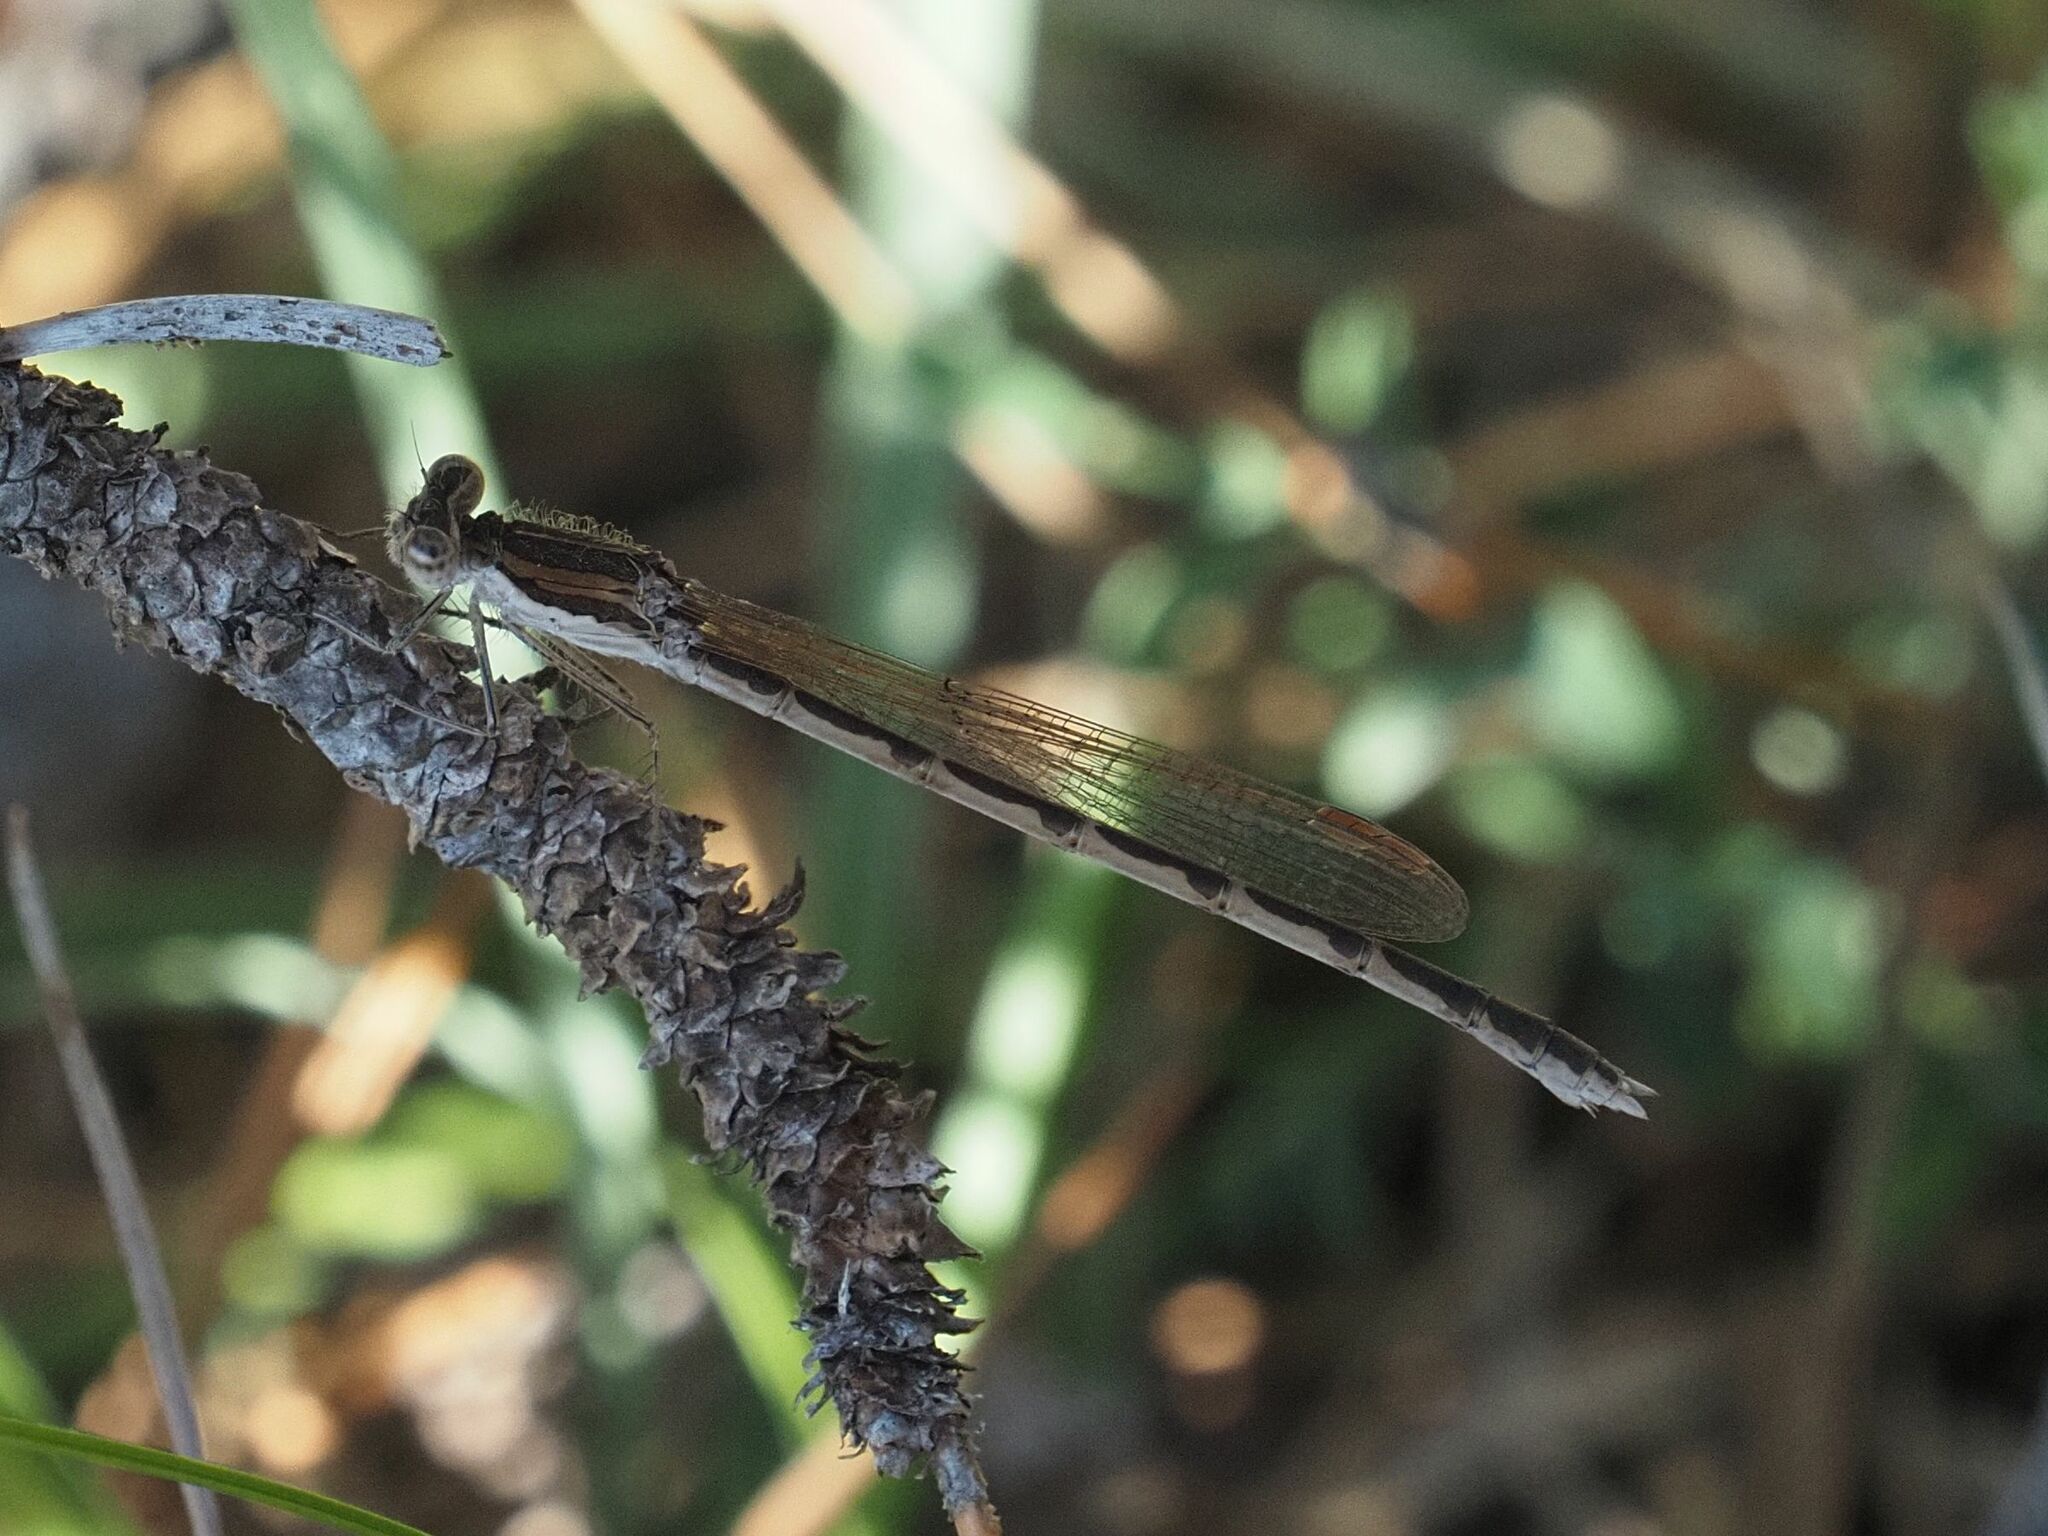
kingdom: Animalia
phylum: Arthropoda
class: Insecta
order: Odonata
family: Lestidae
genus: Sympecma
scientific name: Sympecma fusca
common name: Common winter damsel
